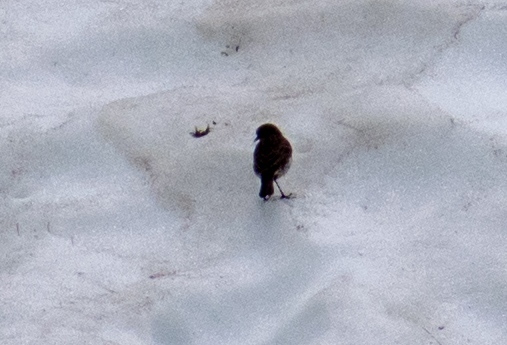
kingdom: Animalia
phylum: Chordata
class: Aves
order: Passeriformes
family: Motacillidae
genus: Anthus
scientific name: Anthus spinoletta
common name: Water pipit
